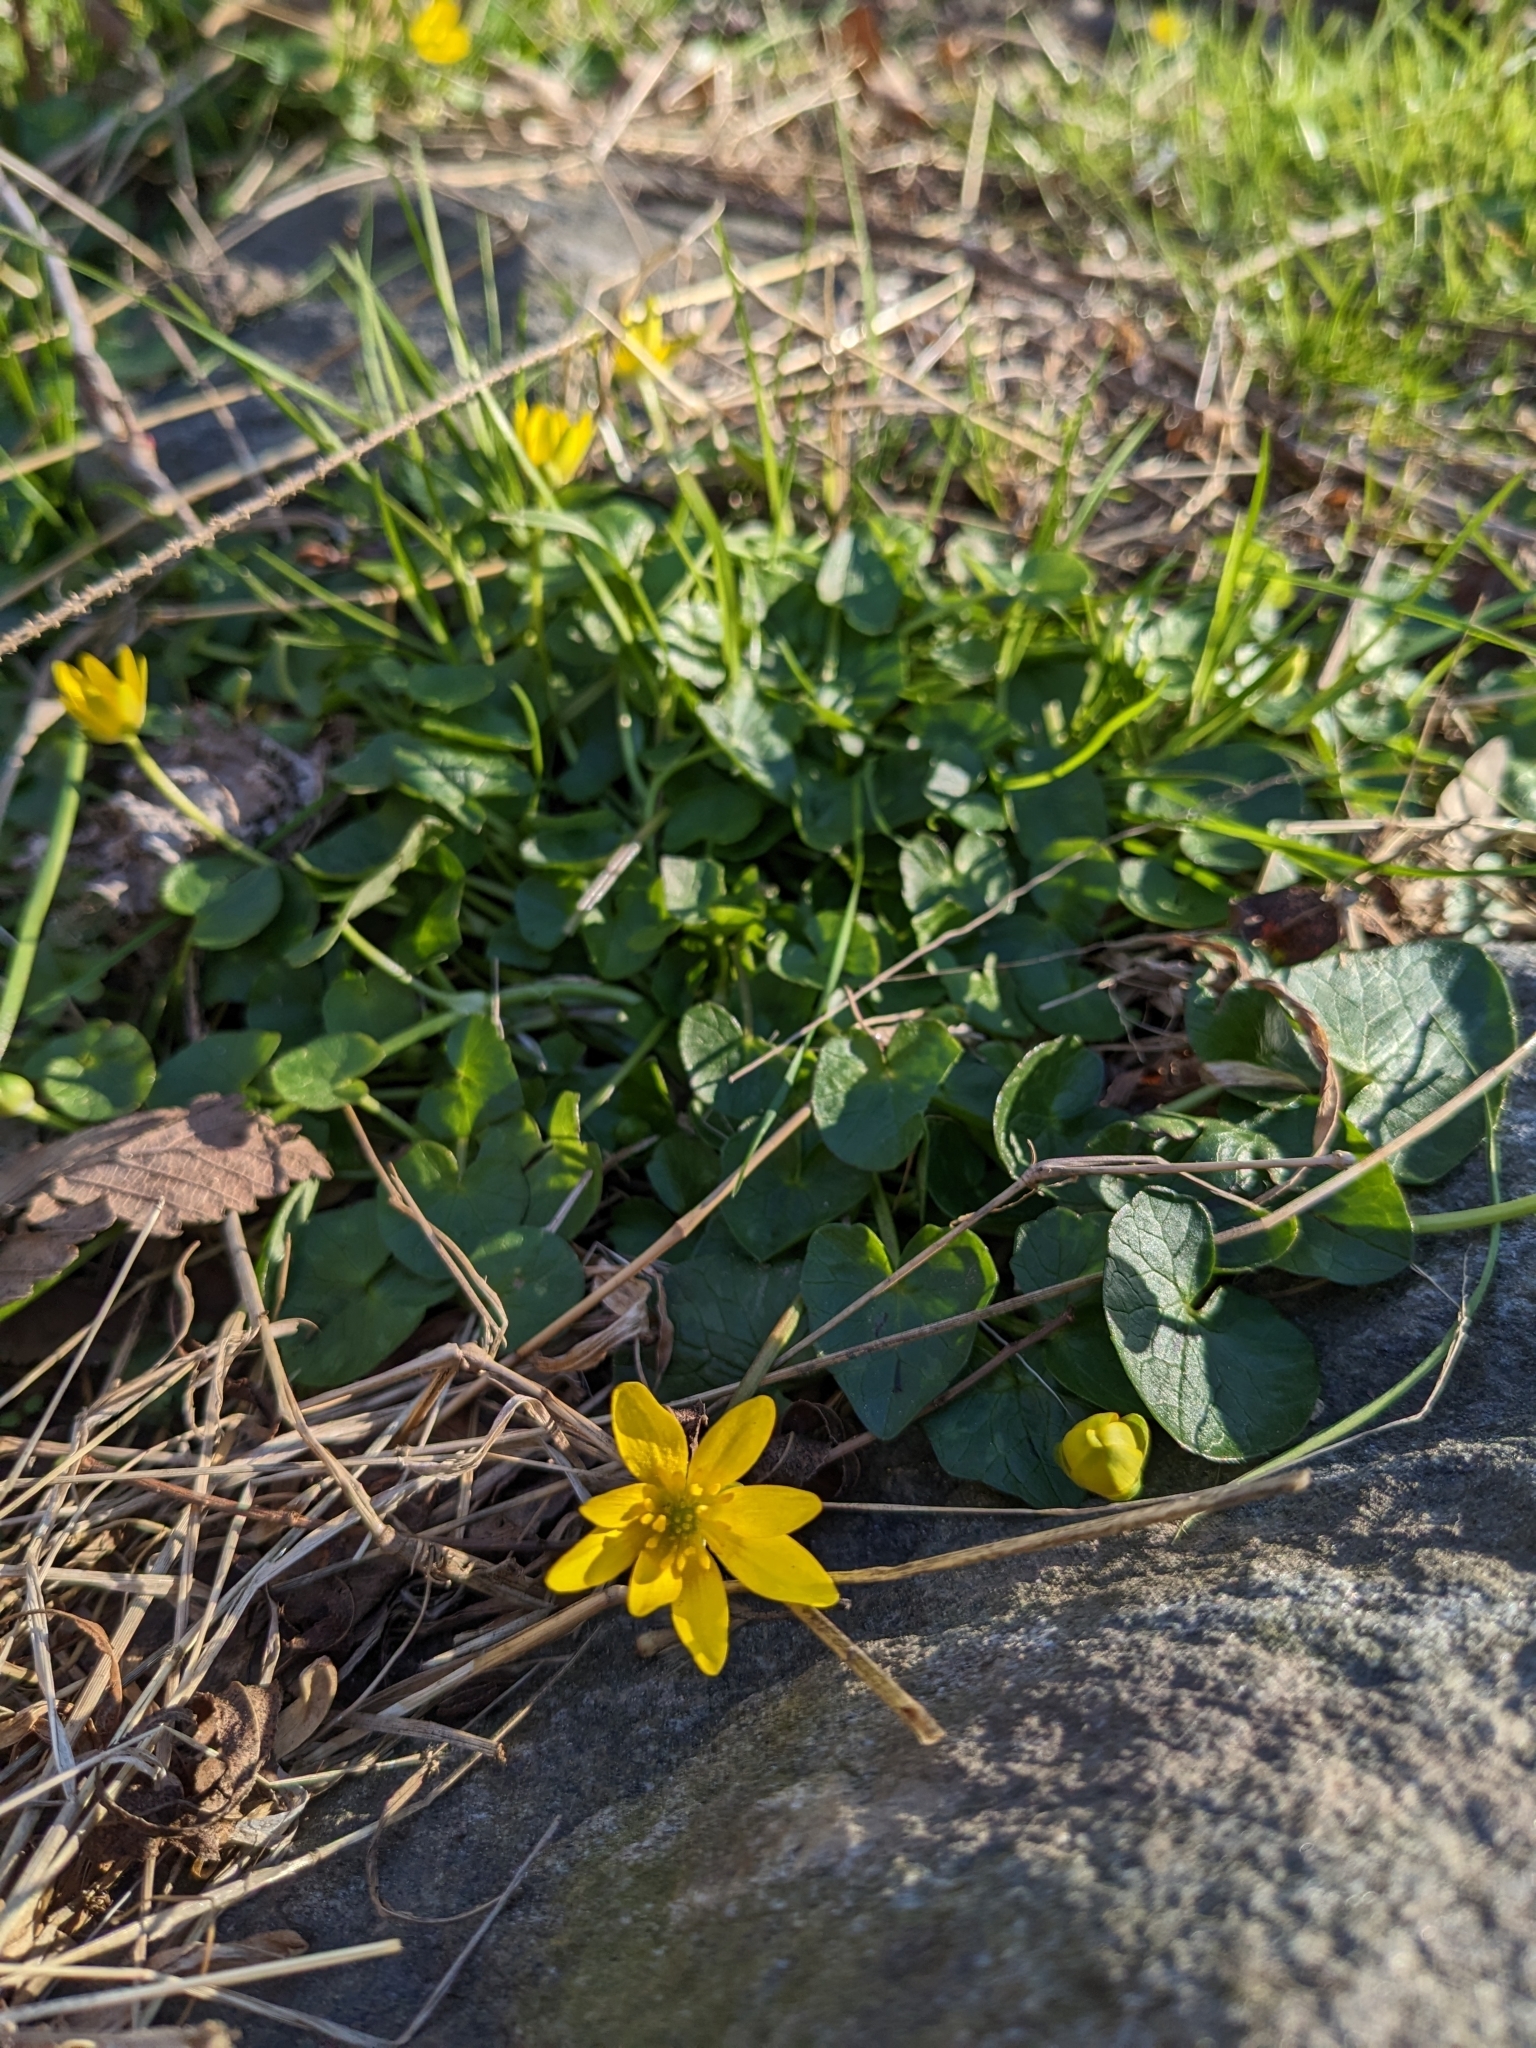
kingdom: Plantae
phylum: Tracheophyta
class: Magnoliopsida
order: Ranunculales
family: Ranunculaceae
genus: Ficaria
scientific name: Ficaria verna
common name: Lesser celandine
